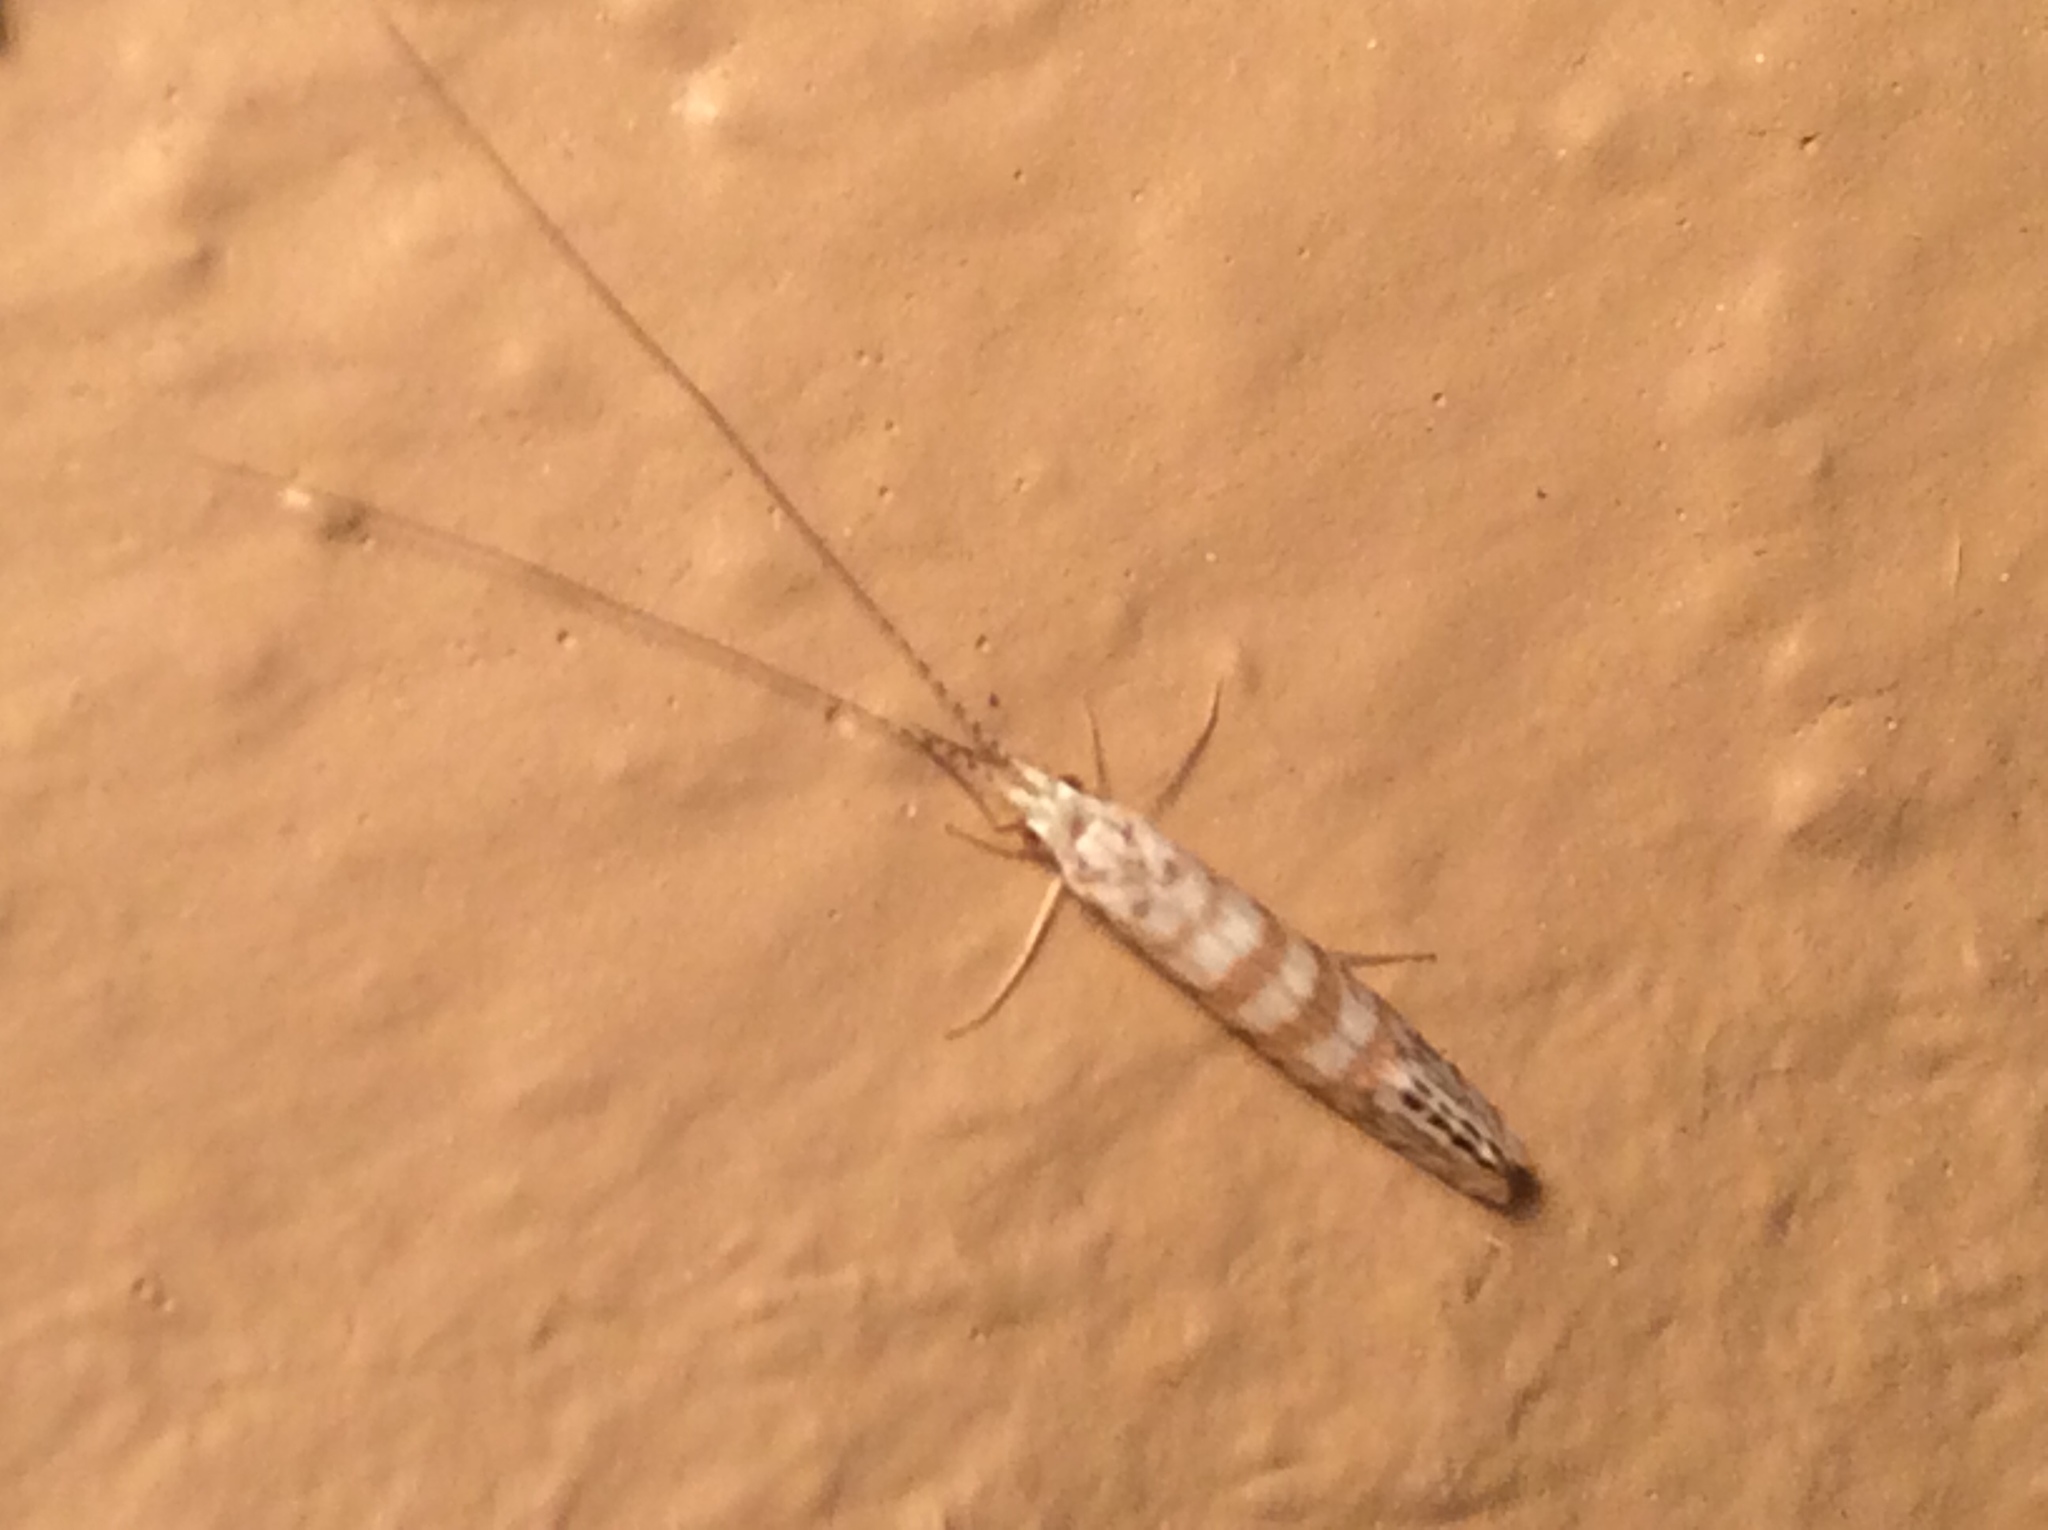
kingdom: Animalia
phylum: Arthropoda
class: Insecta
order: Trichoptera
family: Leptoceridae
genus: Nectopsyche
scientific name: Nectopsyche exquisita
